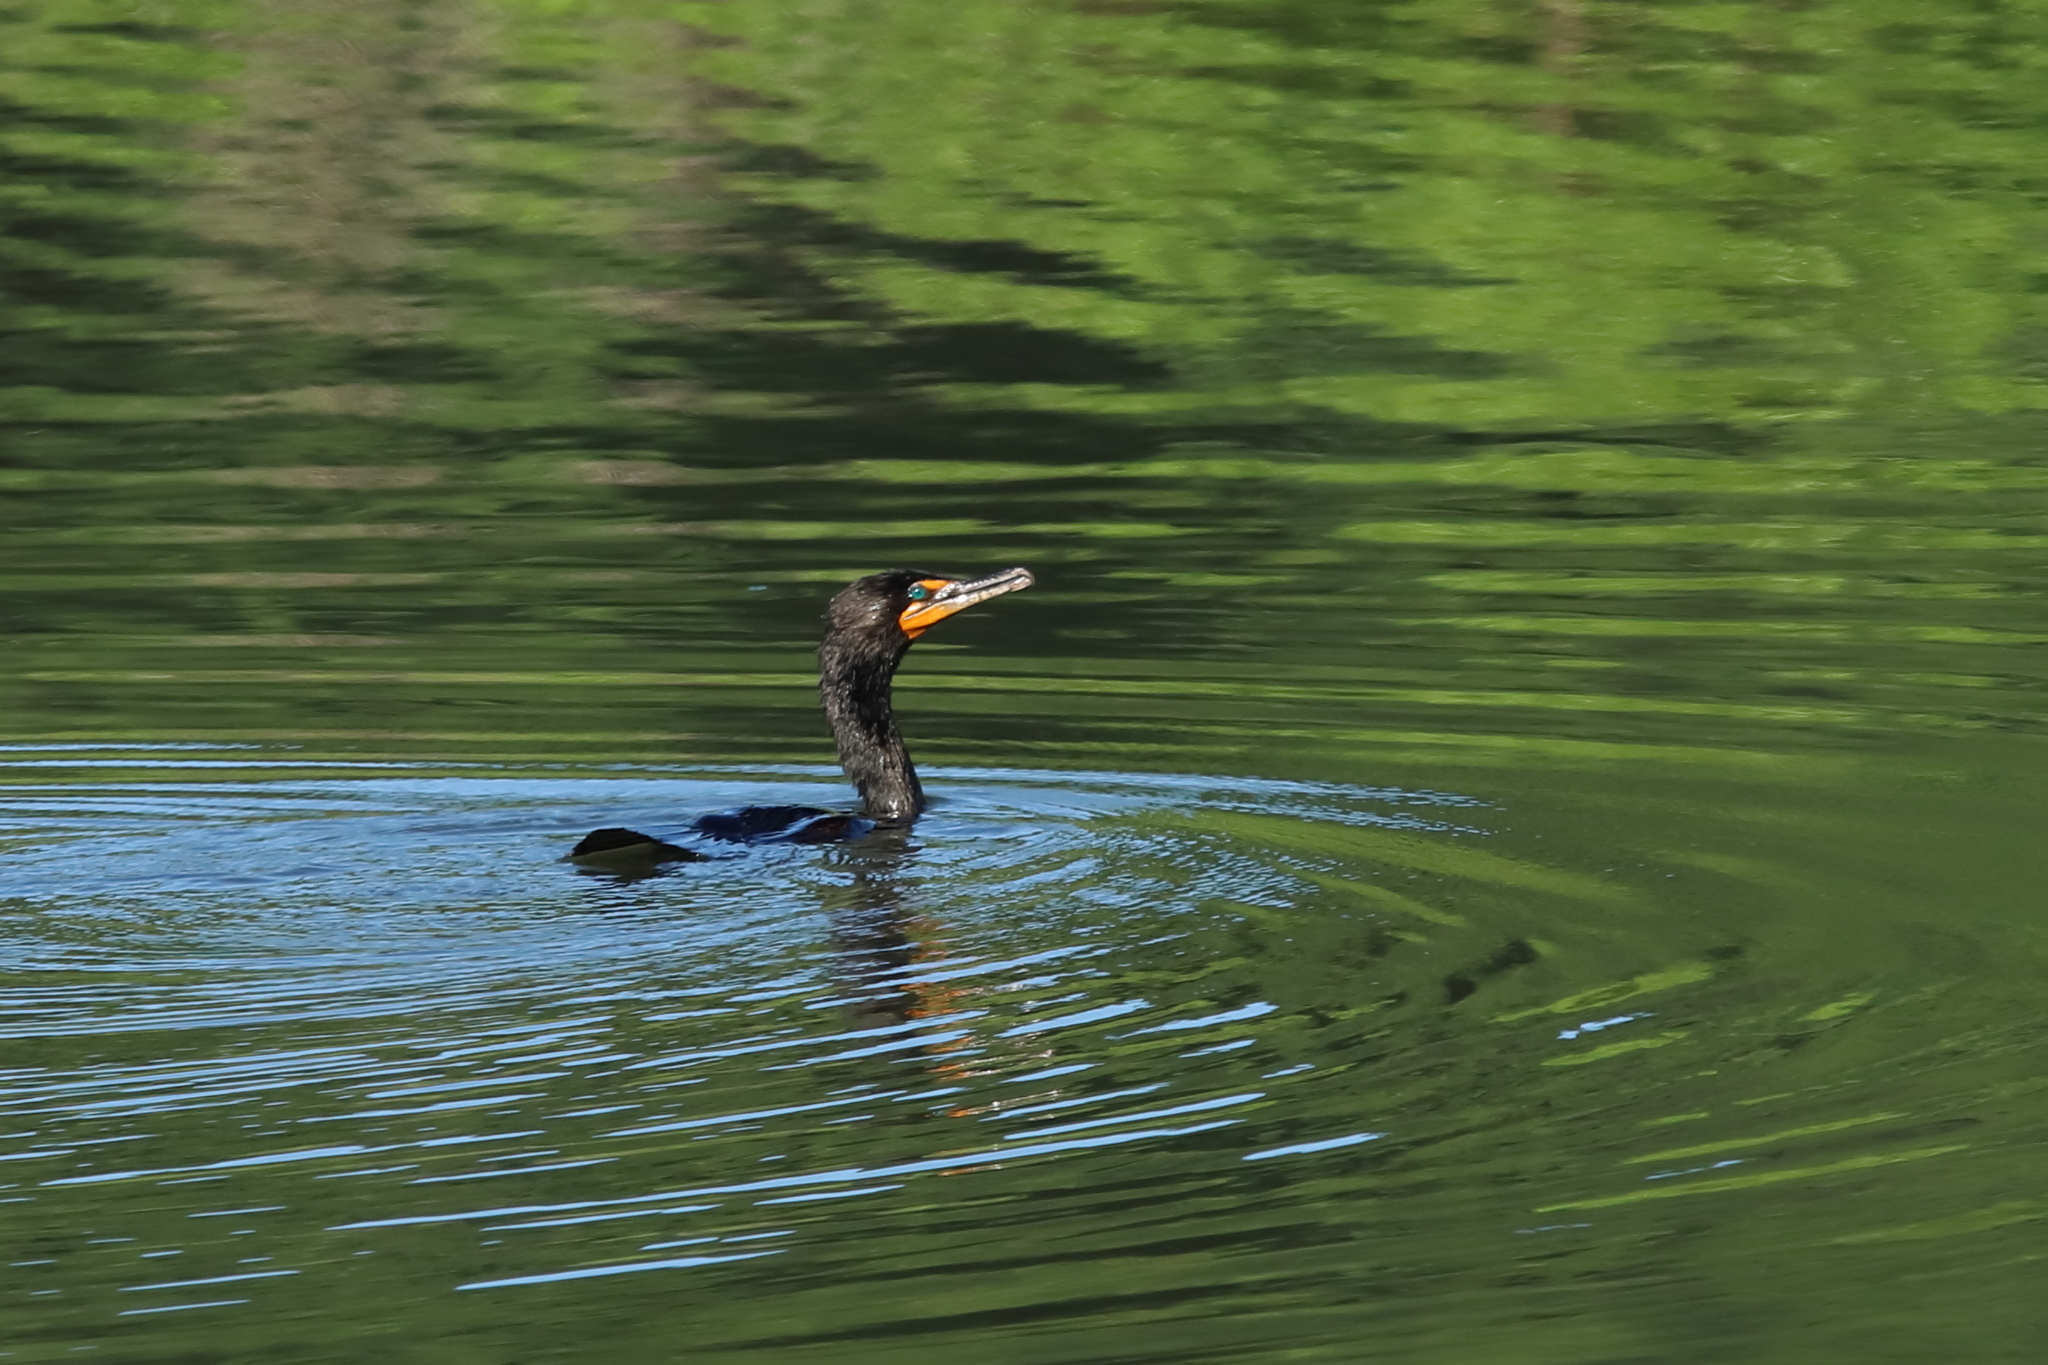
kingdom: Animalia
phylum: Chordata
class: Aves
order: Suliformes
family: Phalacrocoracidae
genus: Phalacrocorax
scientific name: Phalacrocorax auritus
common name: Double-crested cormorant
